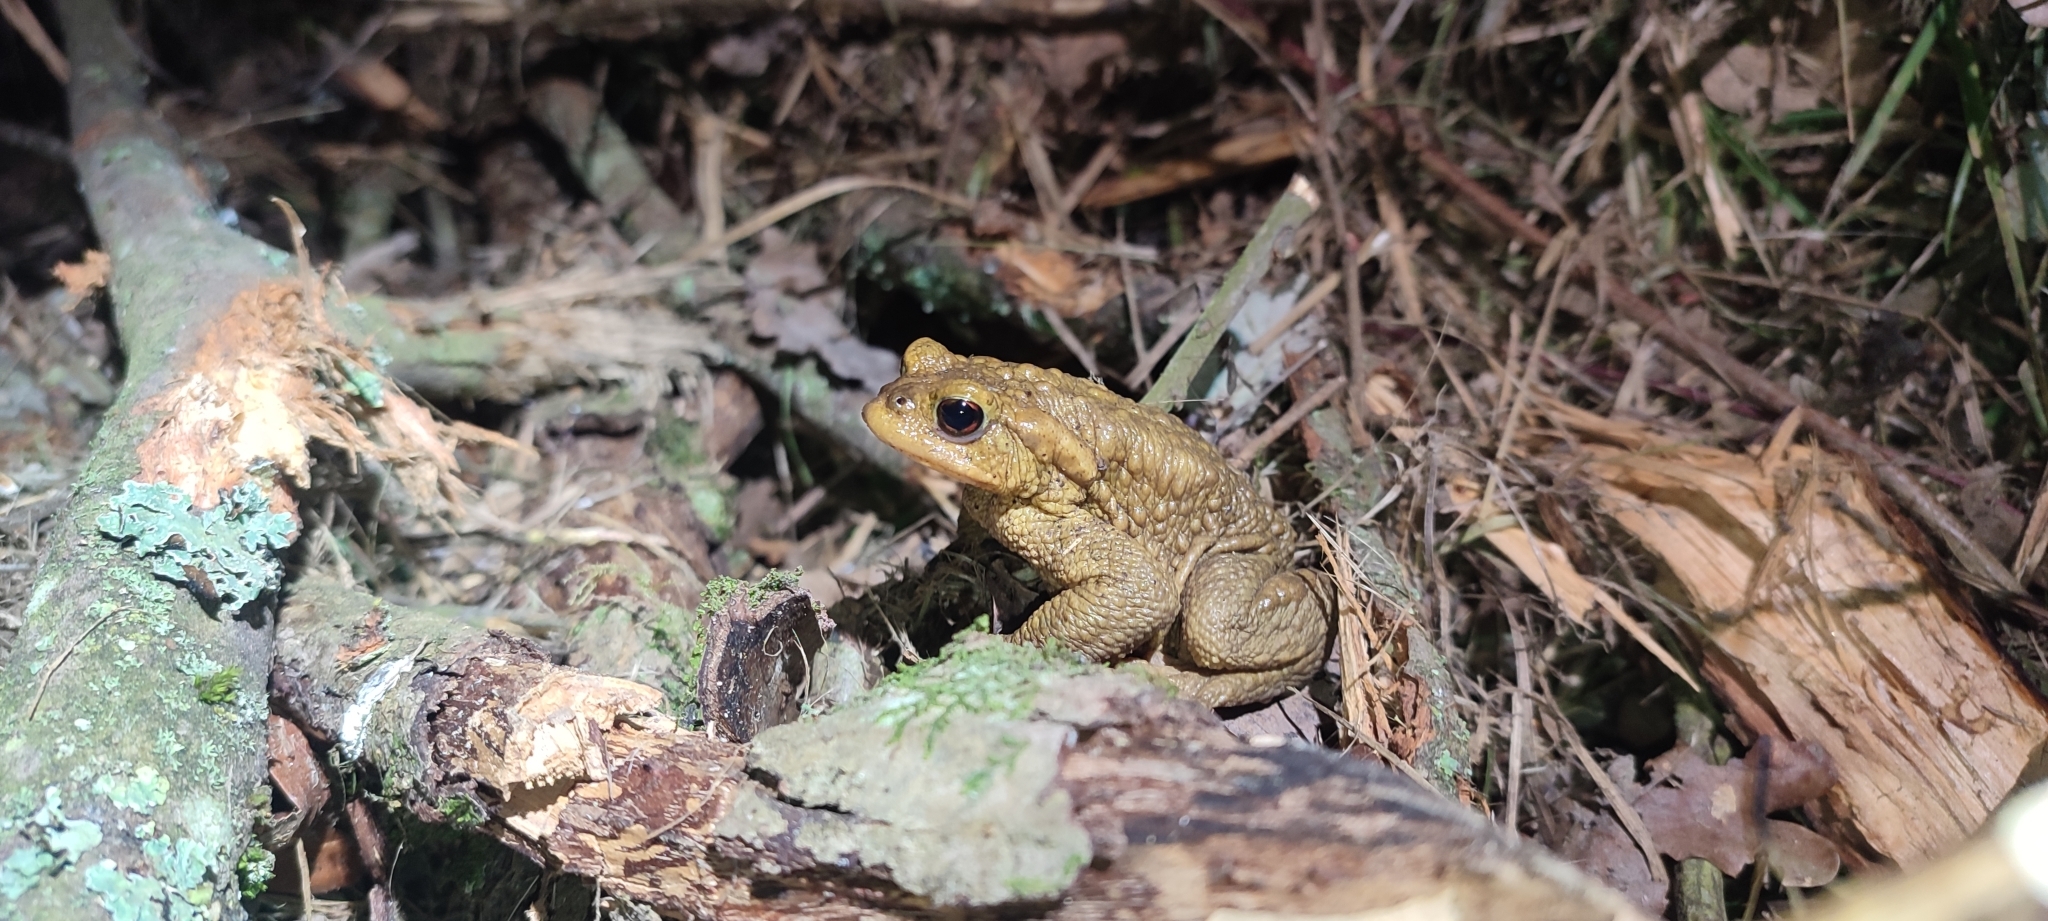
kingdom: Animalia
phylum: Chordata
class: Amphibia
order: Anura
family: Bufonidae
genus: Bufo
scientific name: Bufo spinosus
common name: Western common toad
